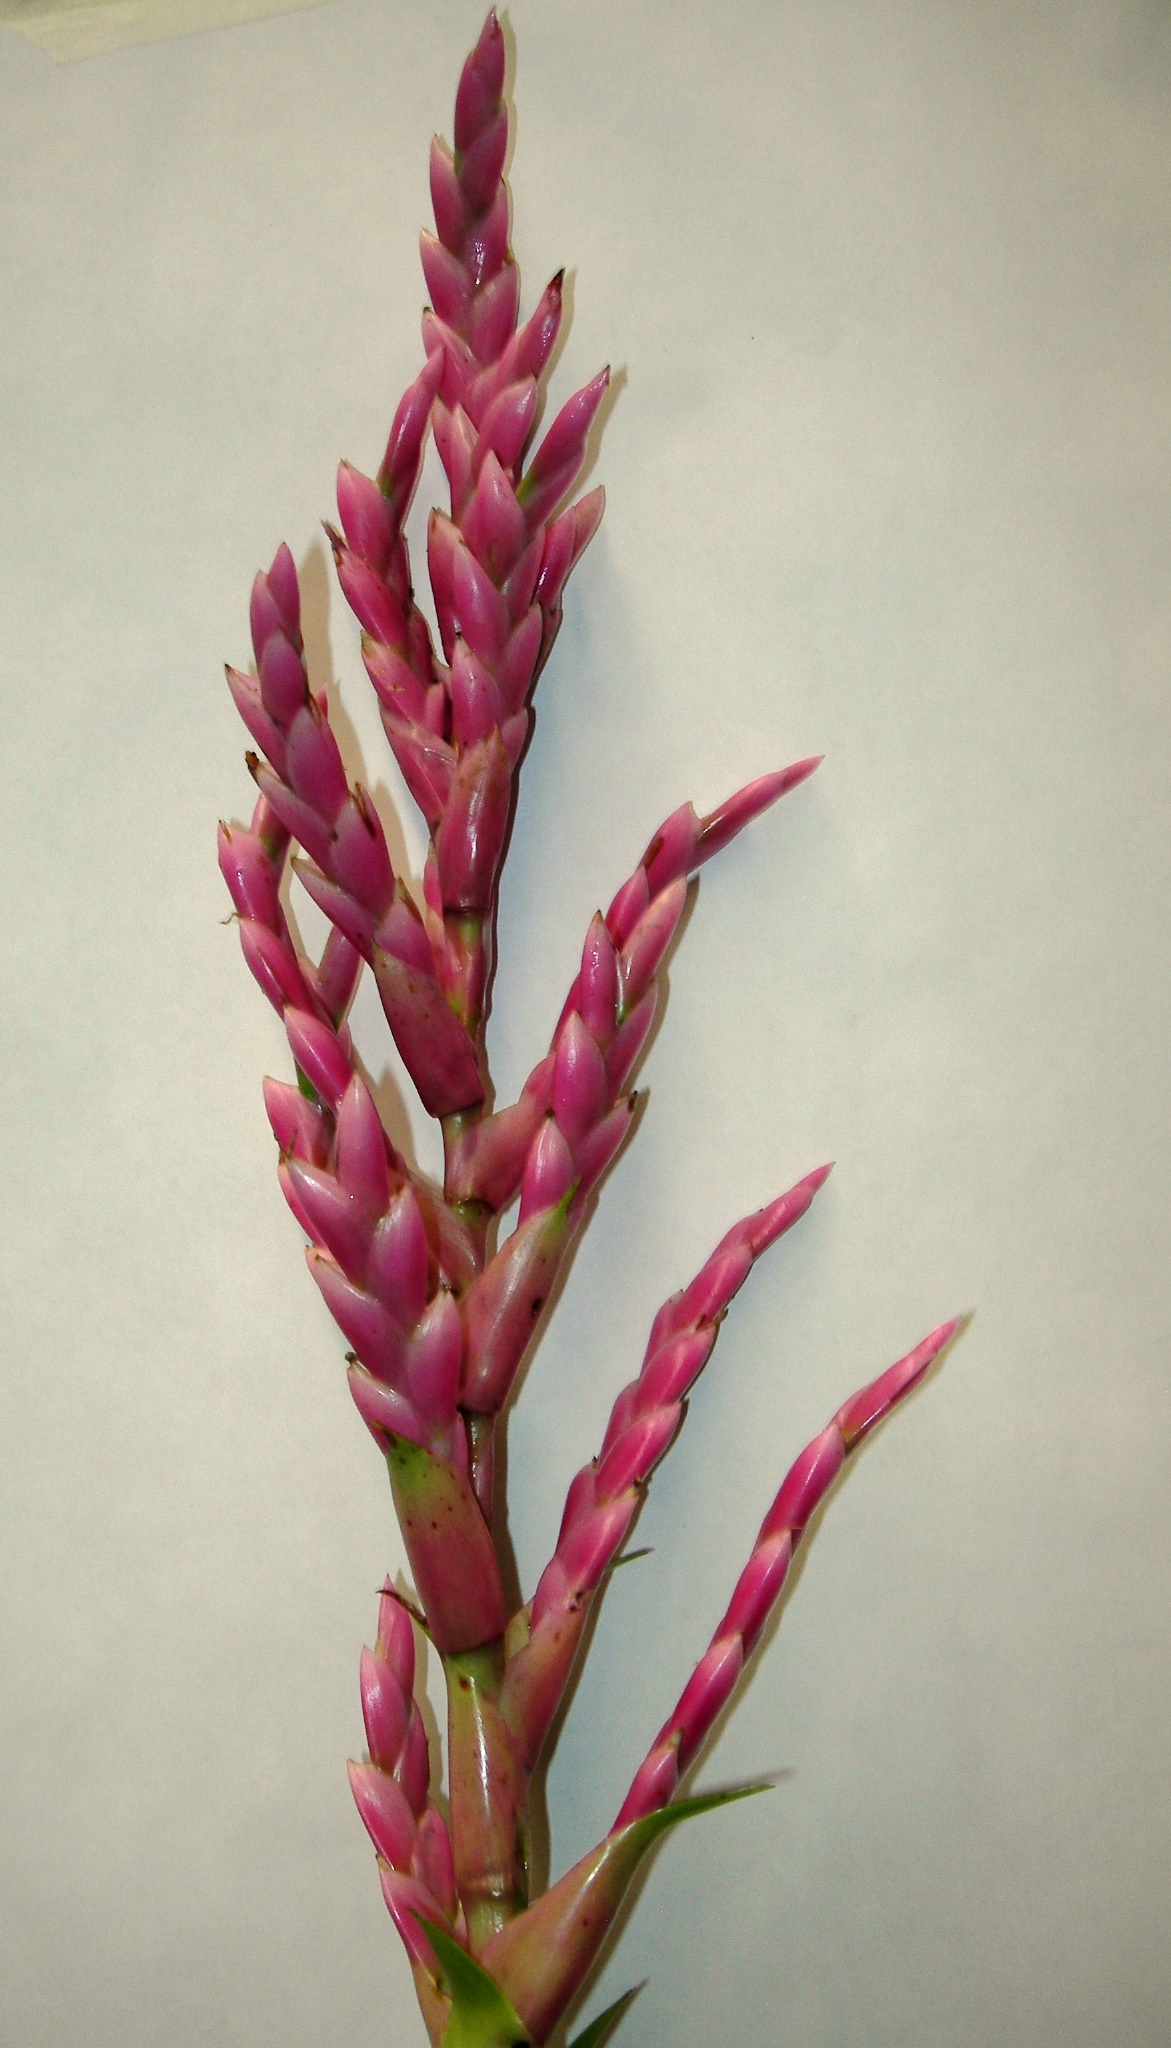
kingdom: Plantae
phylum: Tracheophyta
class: Liliopsida
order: Poales
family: Bromeliaceae
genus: Tillandsia
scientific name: Tillandsia lucida
